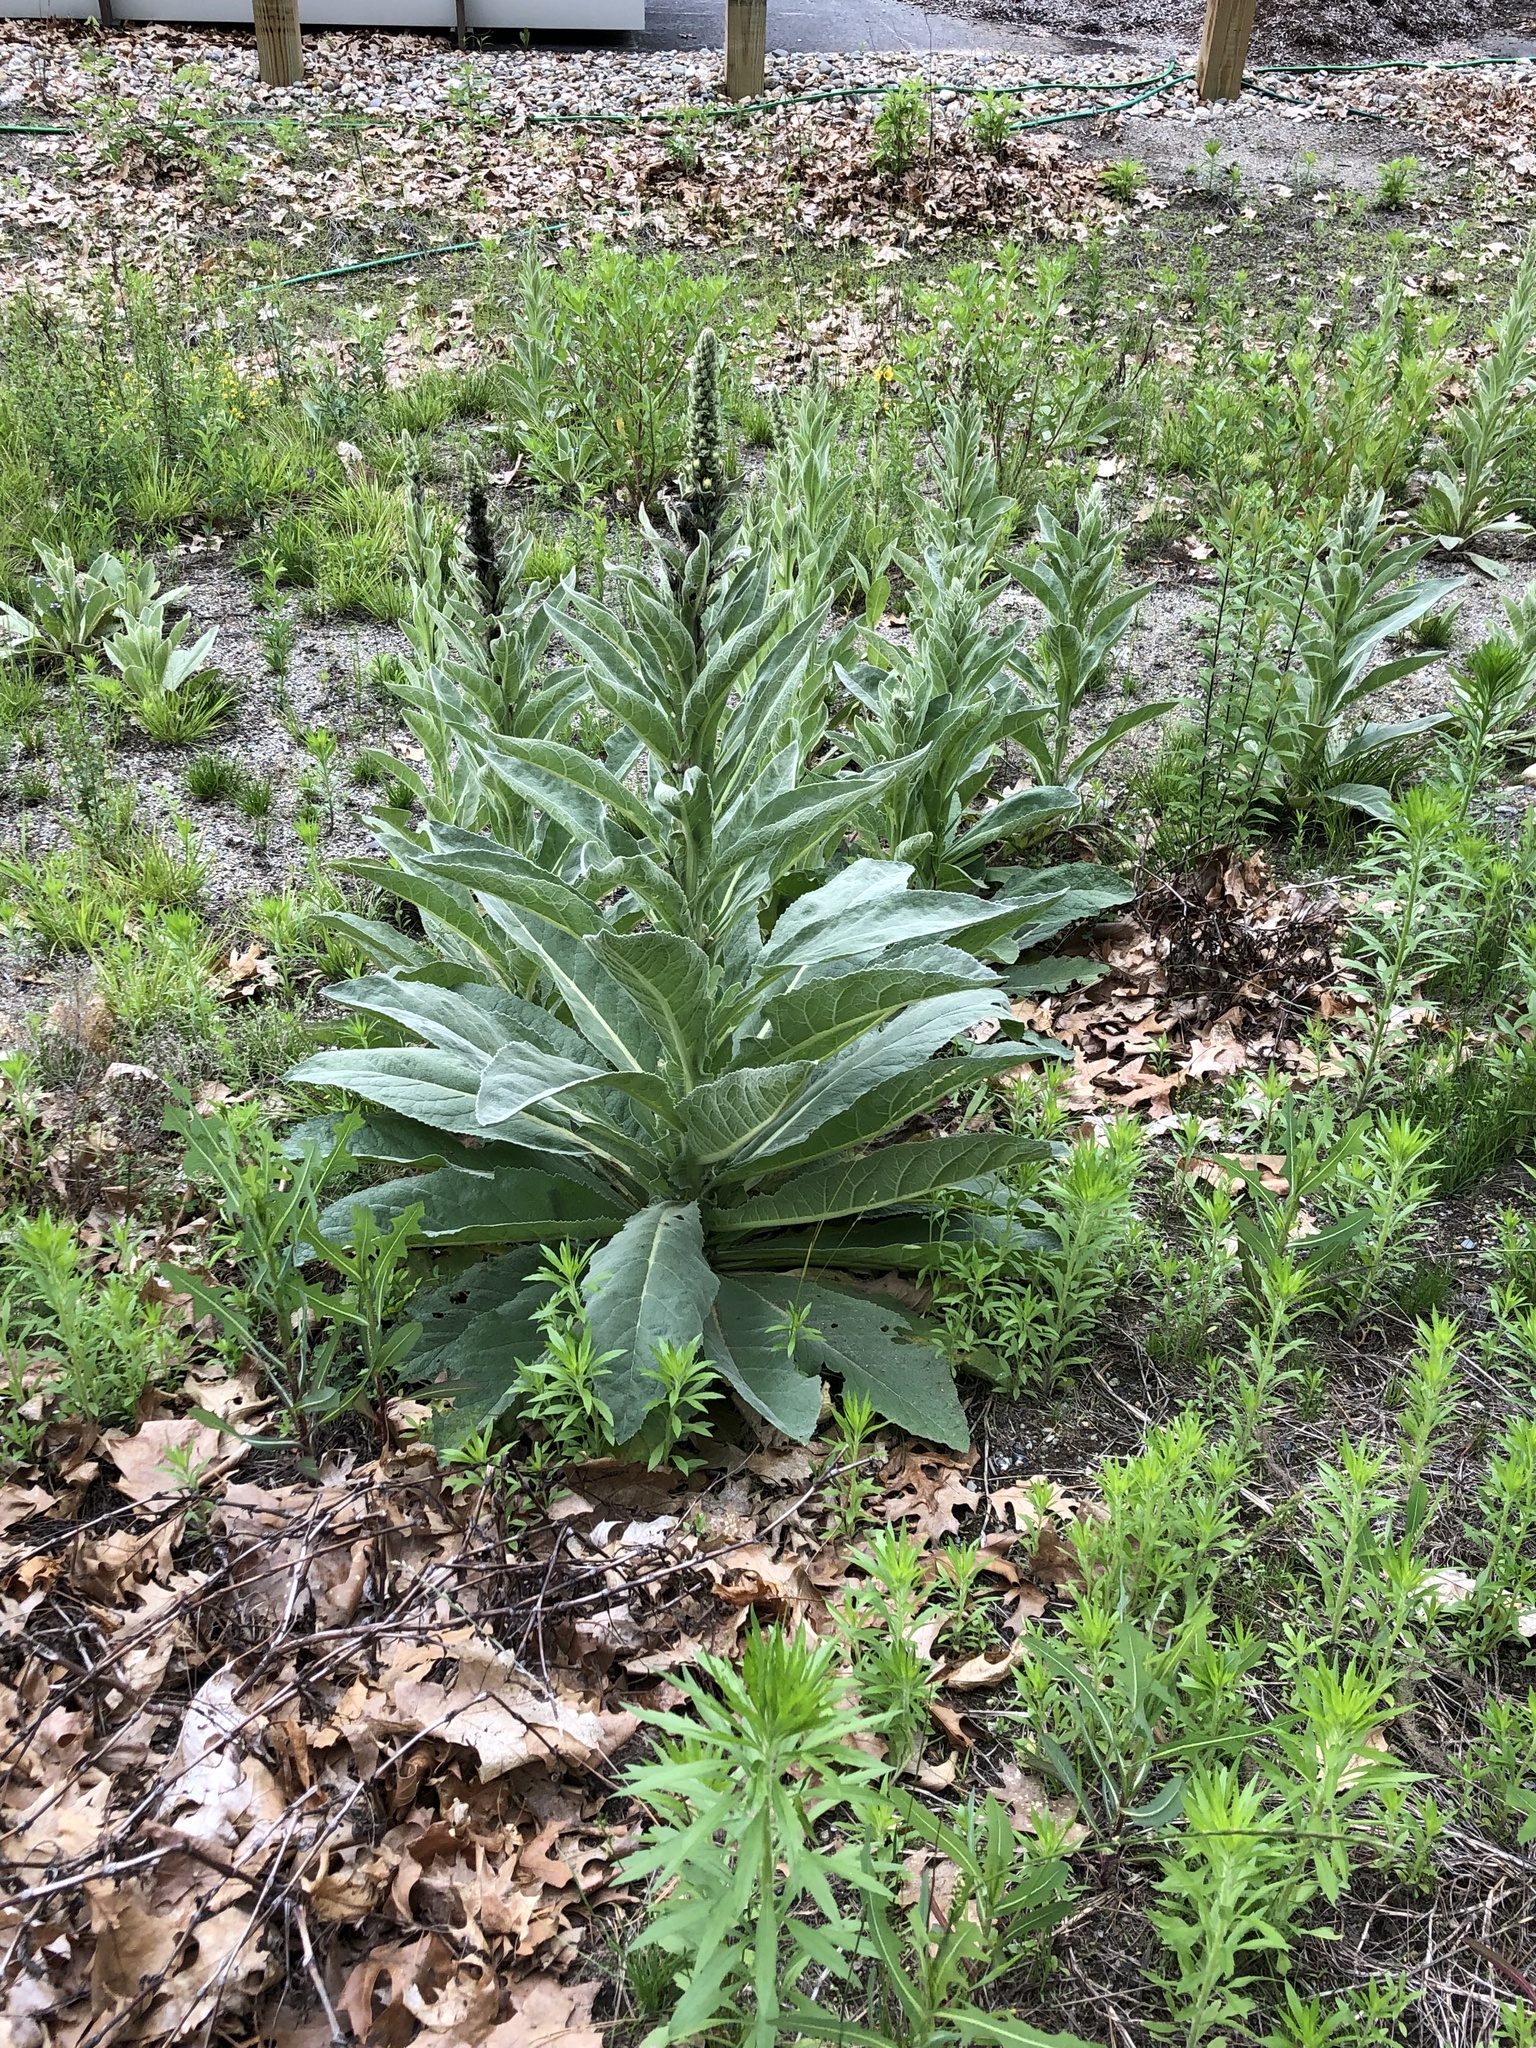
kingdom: Plantae
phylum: Tracheophyta
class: Magnoliopsida
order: Lamiales
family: Scrophulariaceae
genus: Verbascum
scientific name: Verbascum thapsus
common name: Common mullein
